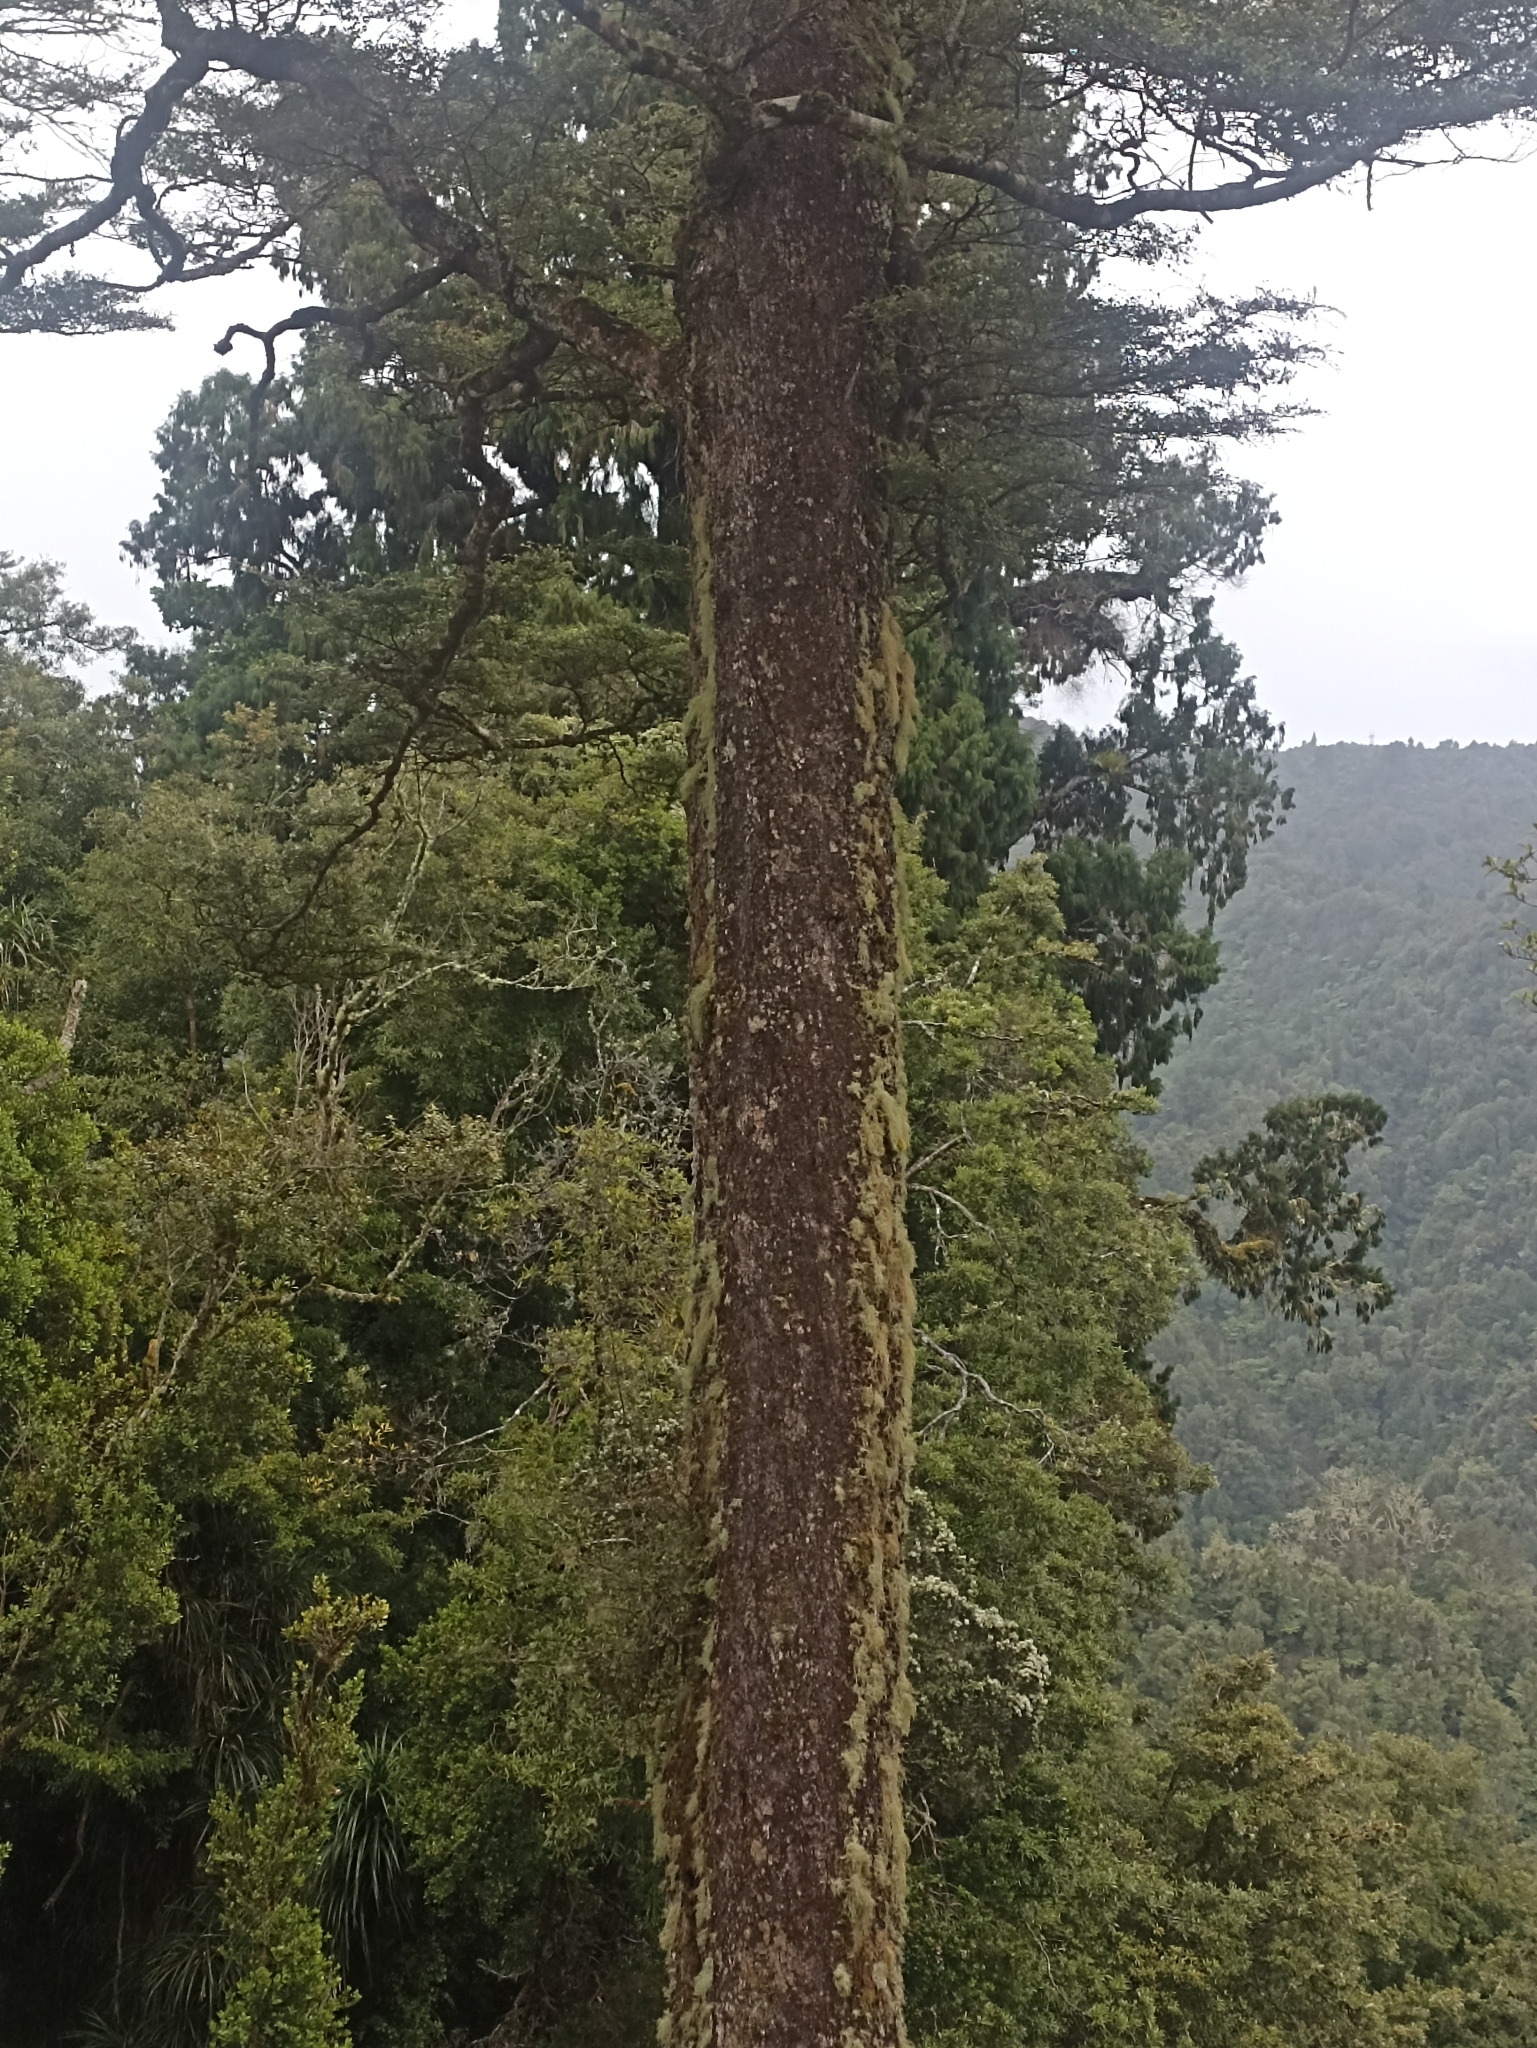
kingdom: Plantae
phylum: Tracheophyta
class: Magnoliopsida
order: Fagales
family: Nothofagaceae
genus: Nothofagus
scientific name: Nothofagus solandri
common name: Black beech
